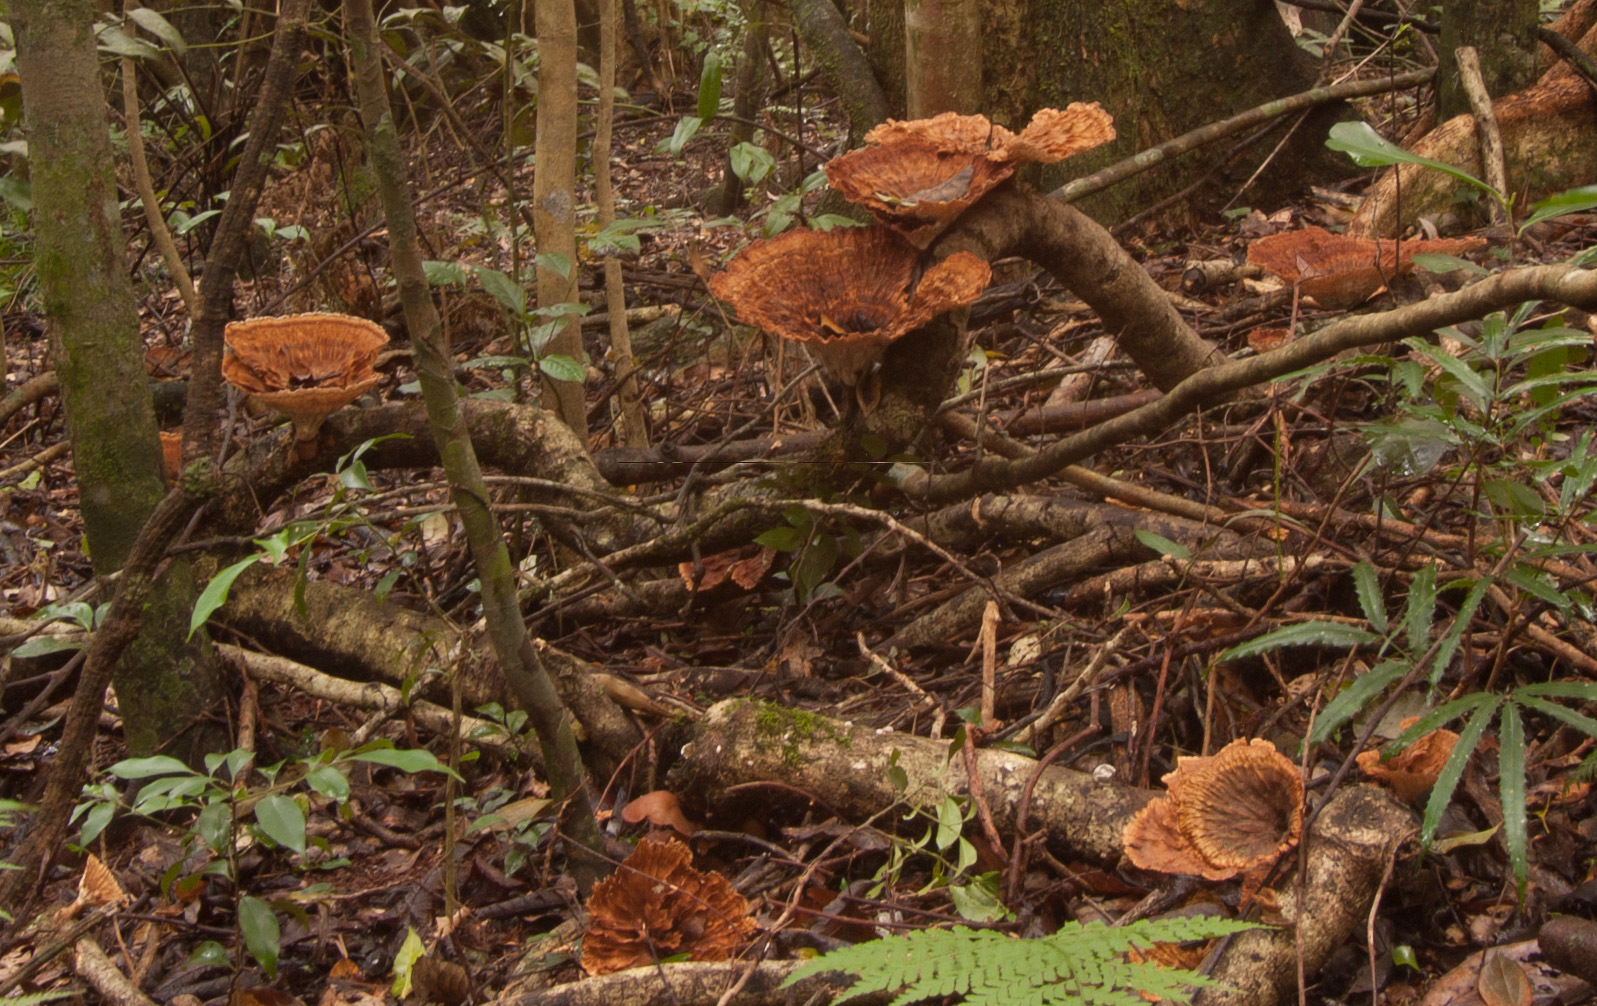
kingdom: Fungi
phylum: Basidiomycota
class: Agaricomycetes
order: Polyporales
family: Panaceae
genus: Cymatoderma
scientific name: Cymatoderma elegans
